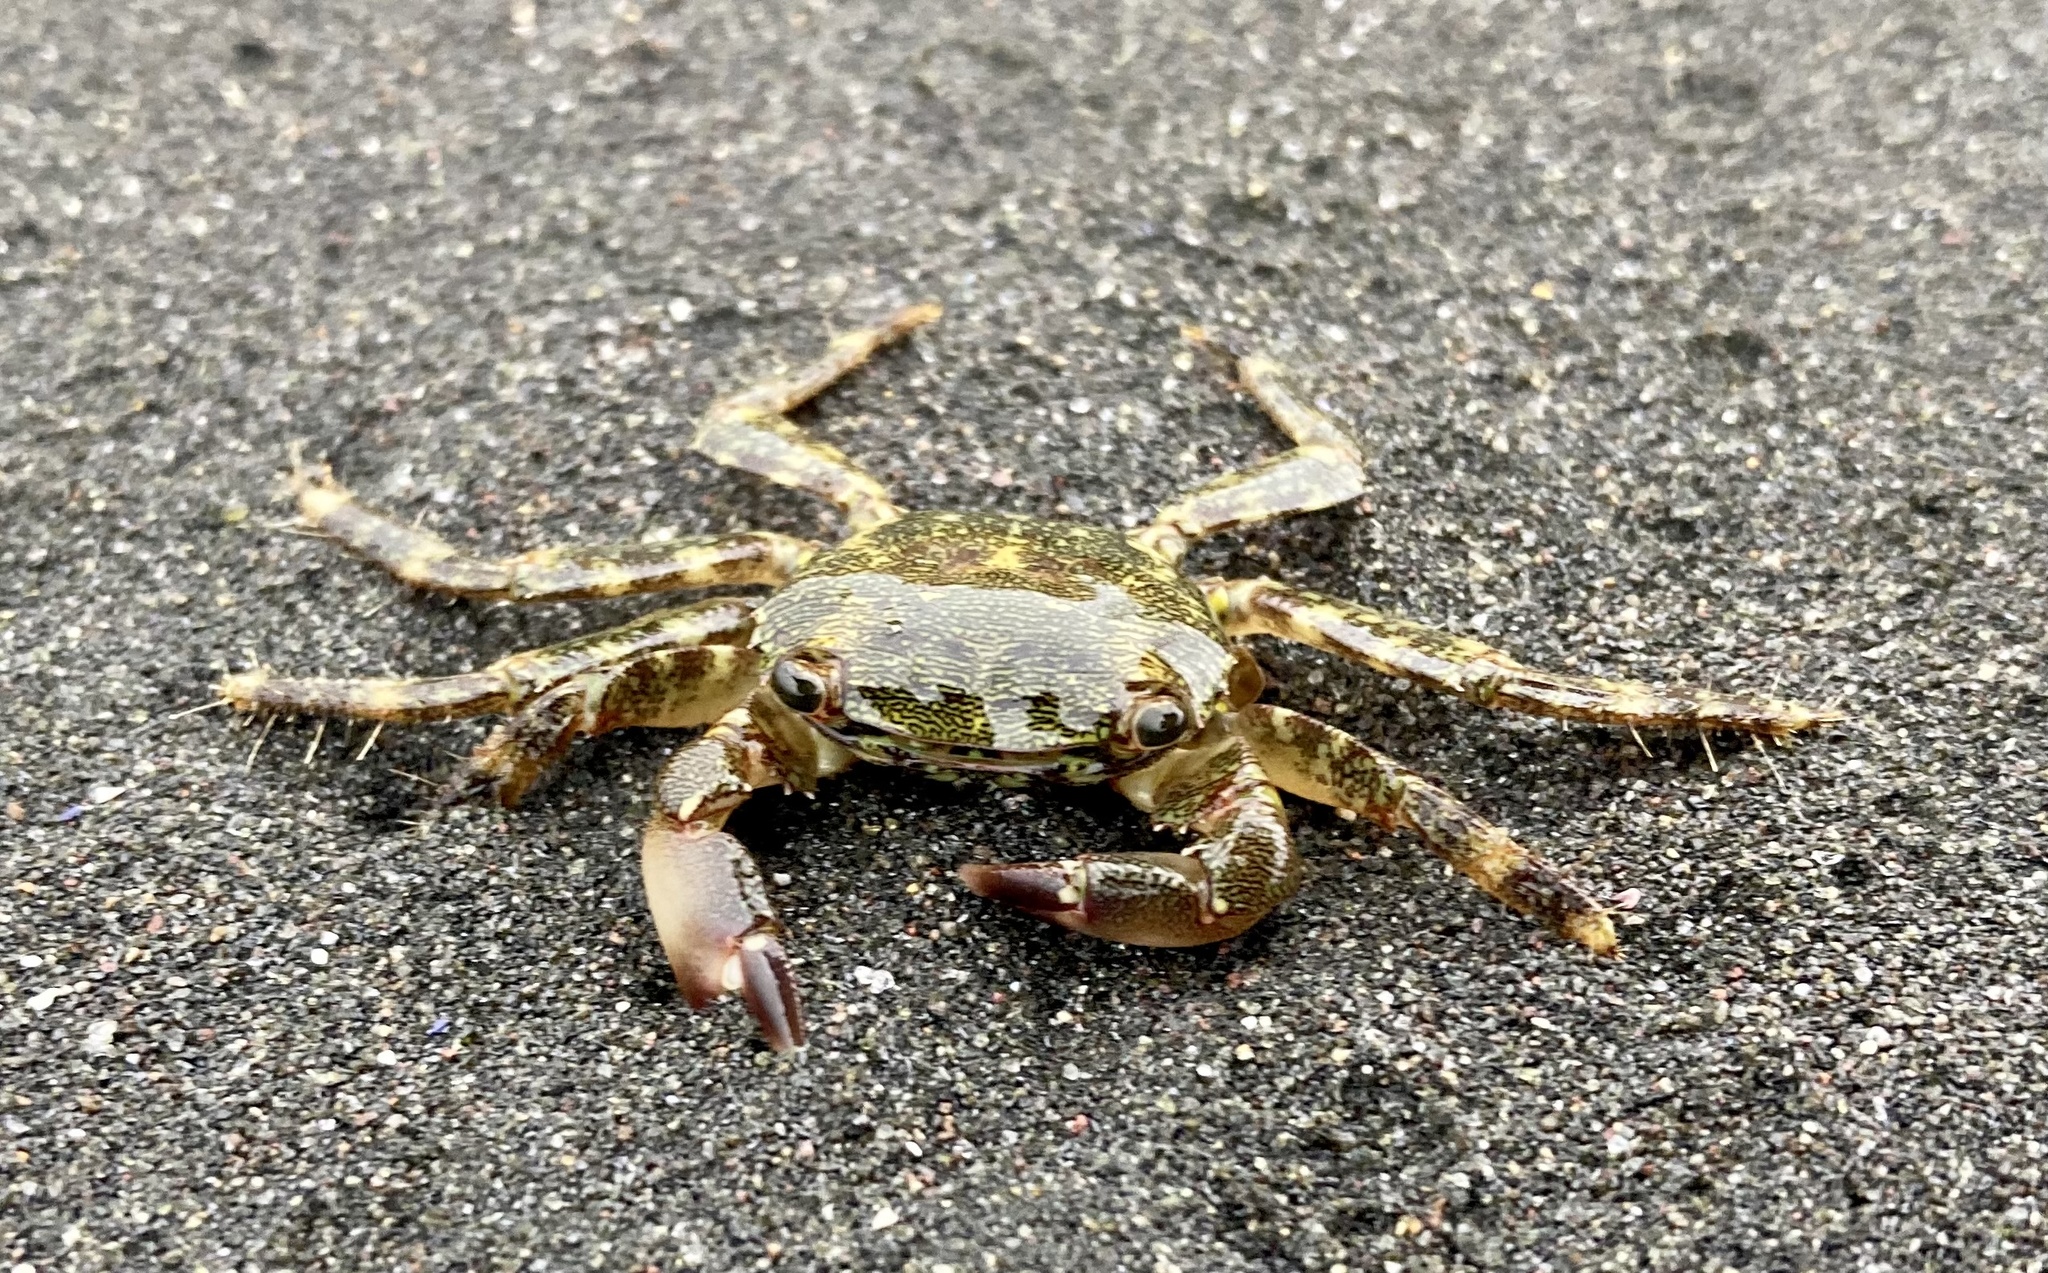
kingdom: Animalia
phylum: Arthropoda
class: Malacostraca
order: Decapoda
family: Grapsidae
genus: Pachygrapsus
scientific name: Pachygrapsus marmoratus
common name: Marbled rock crab
